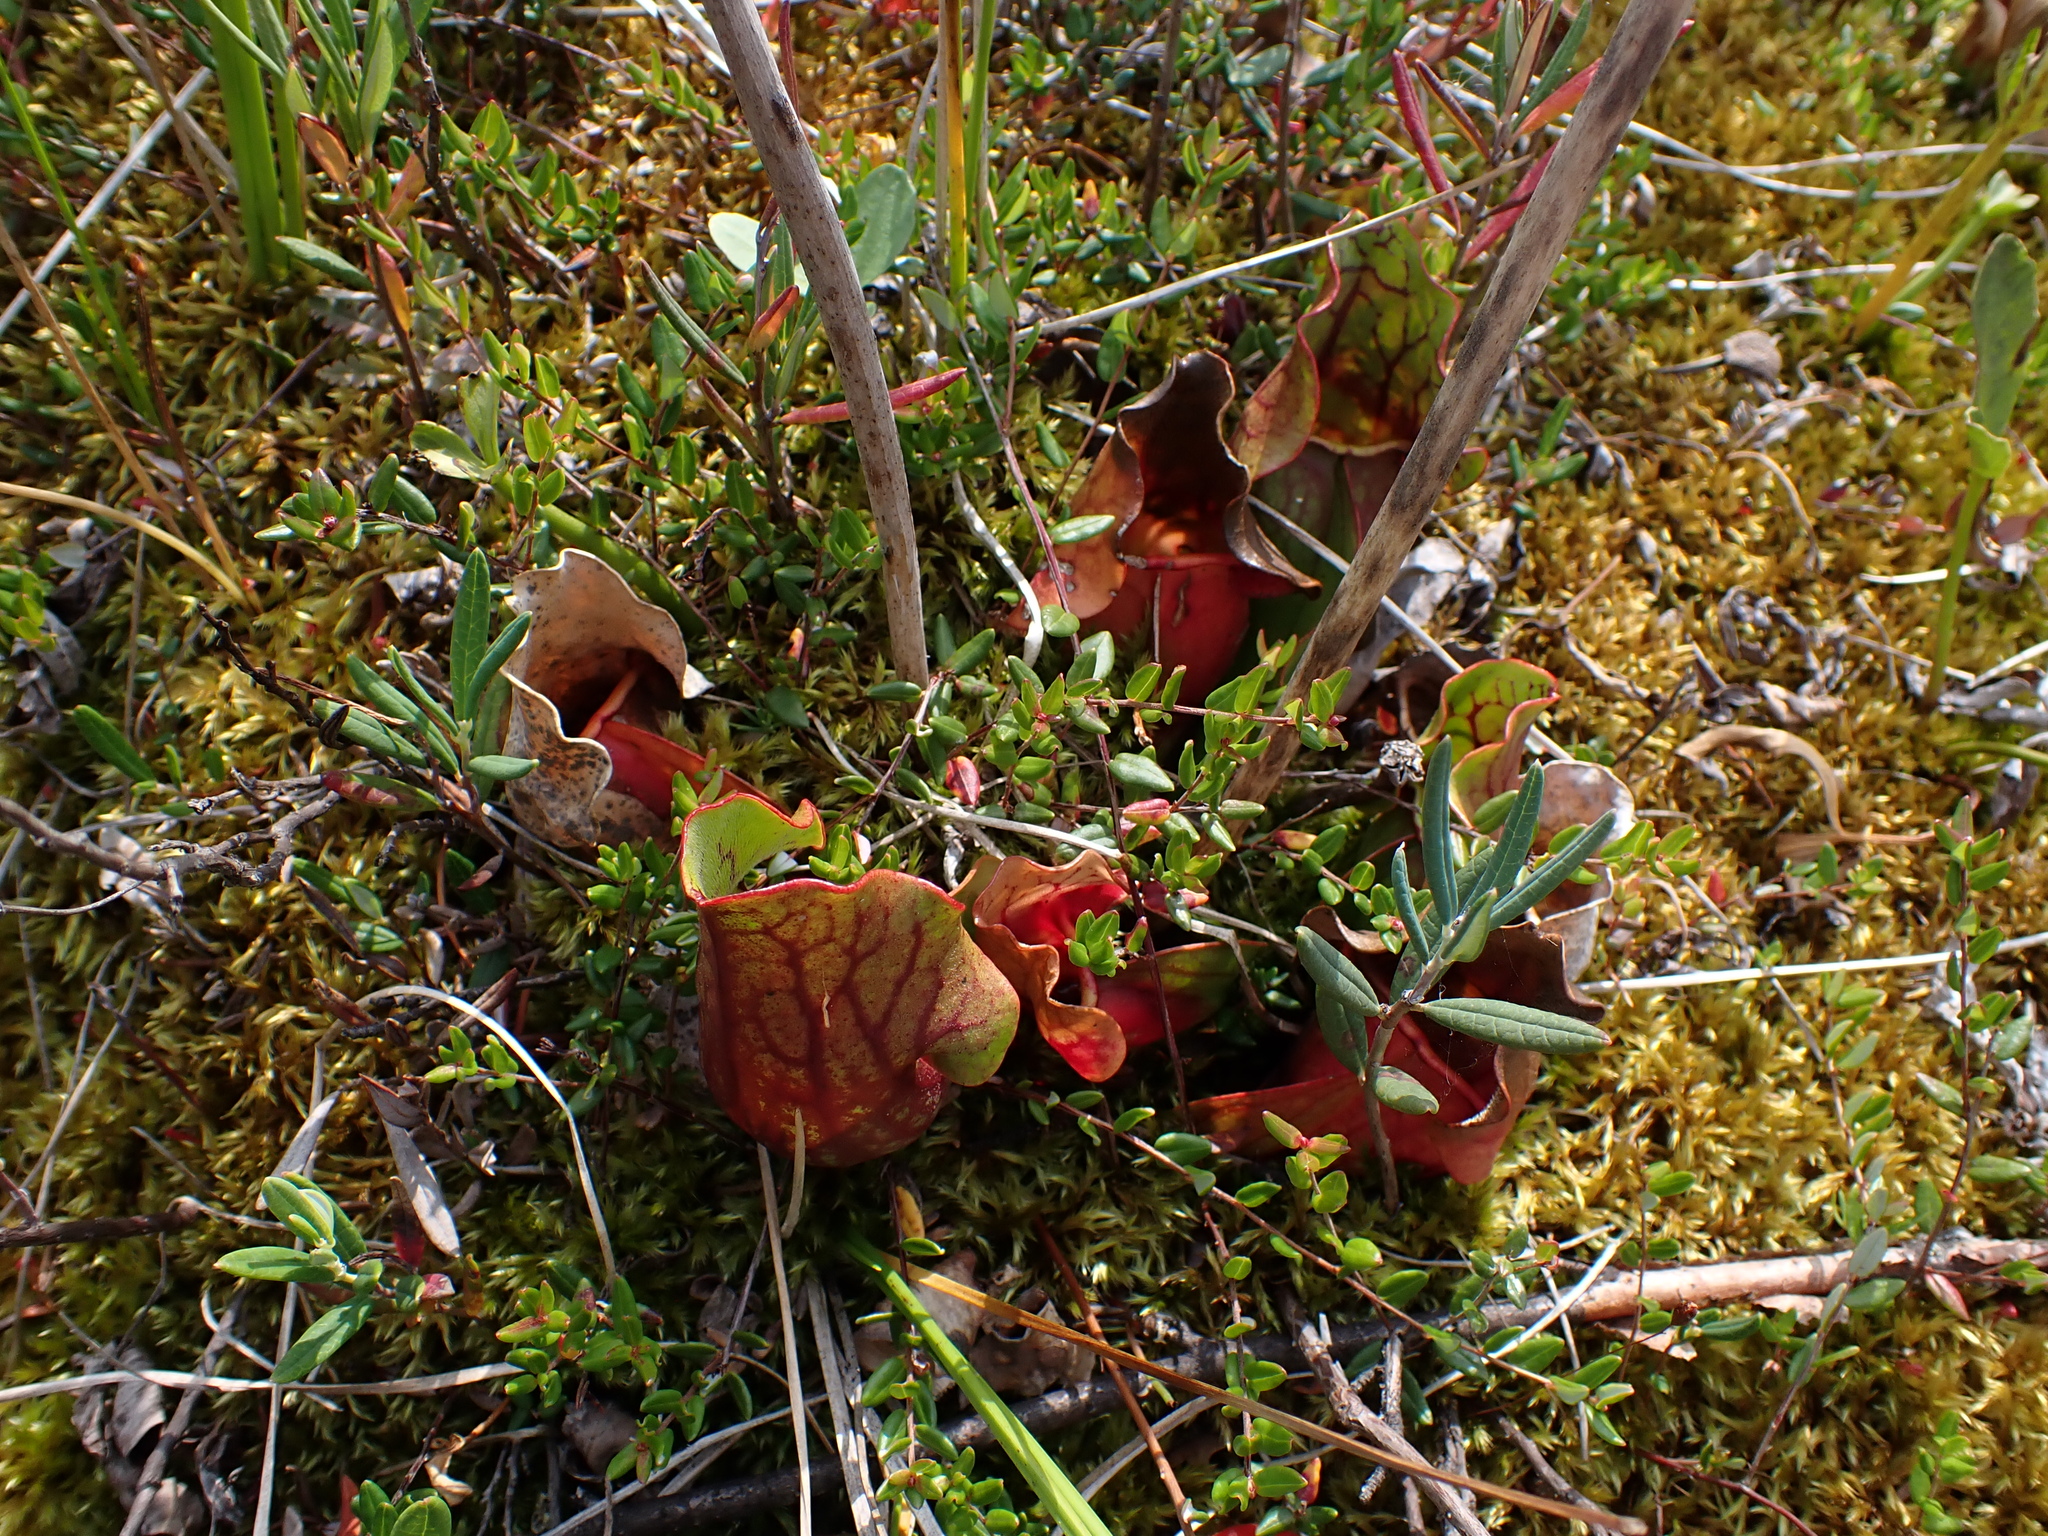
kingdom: Plantae
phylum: Tracheophyta
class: Magnoliopsida
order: Ericales
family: Sarraceniaceae
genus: Sarracenia
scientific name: Sarracenia purpurea
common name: Pitcherplant
